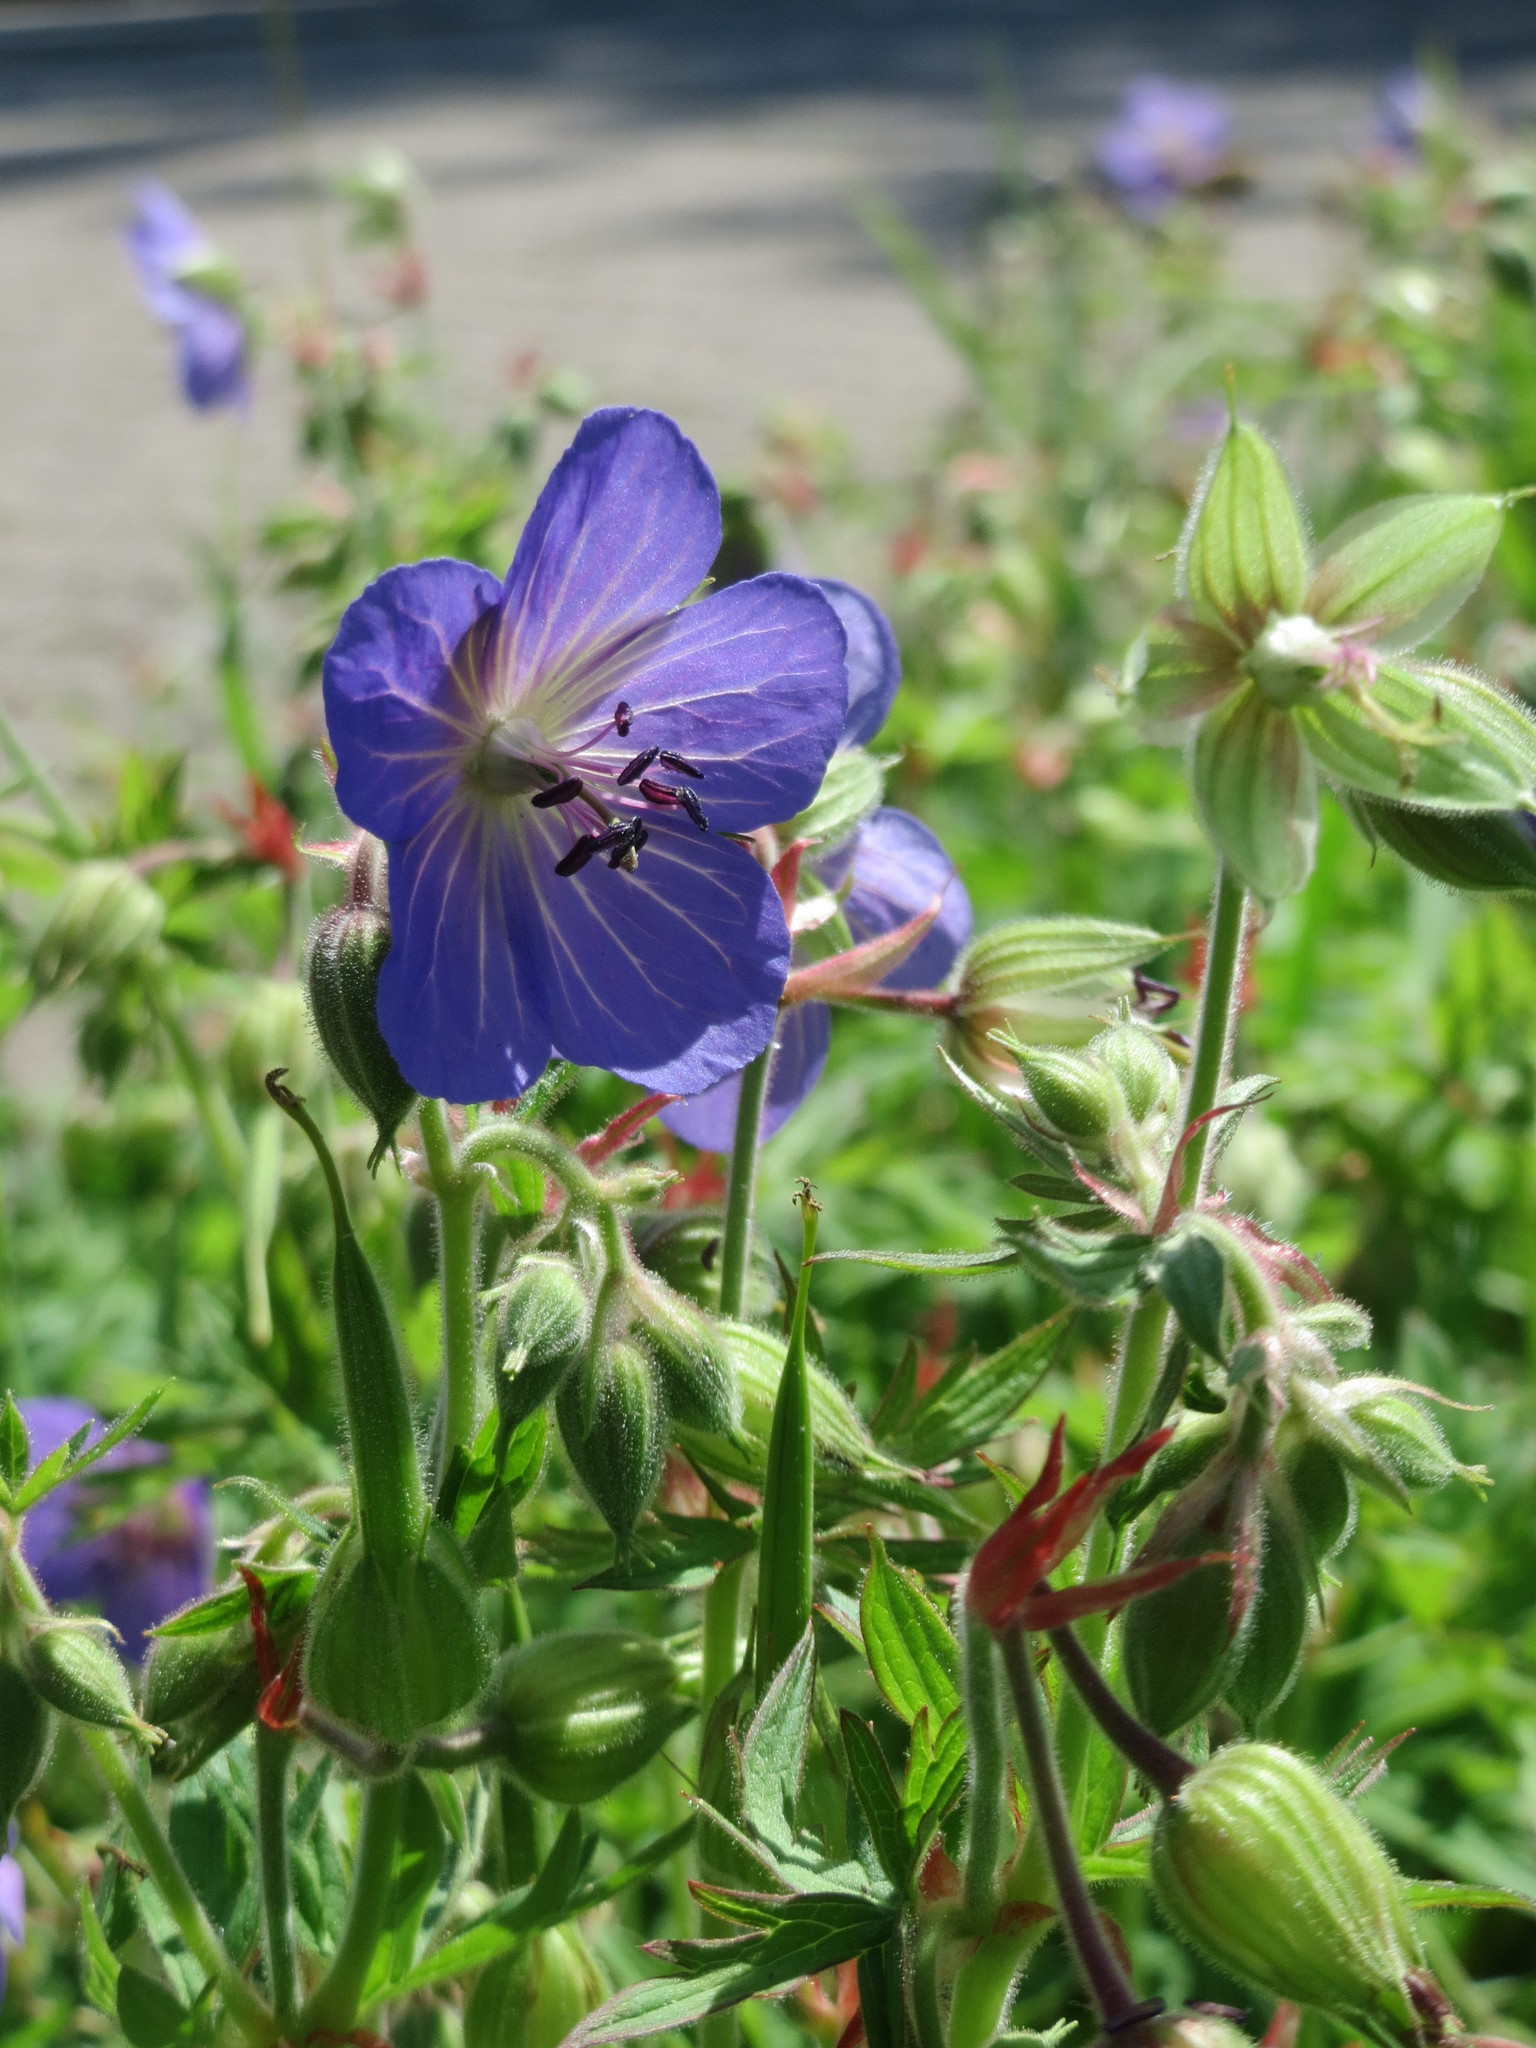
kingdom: Plantae
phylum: Tracheophyta
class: Magnoliopsida
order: Geraniales
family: Geraniaceae
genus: Geranium
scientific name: Geranium pratense
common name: Meadow crane's-bill
